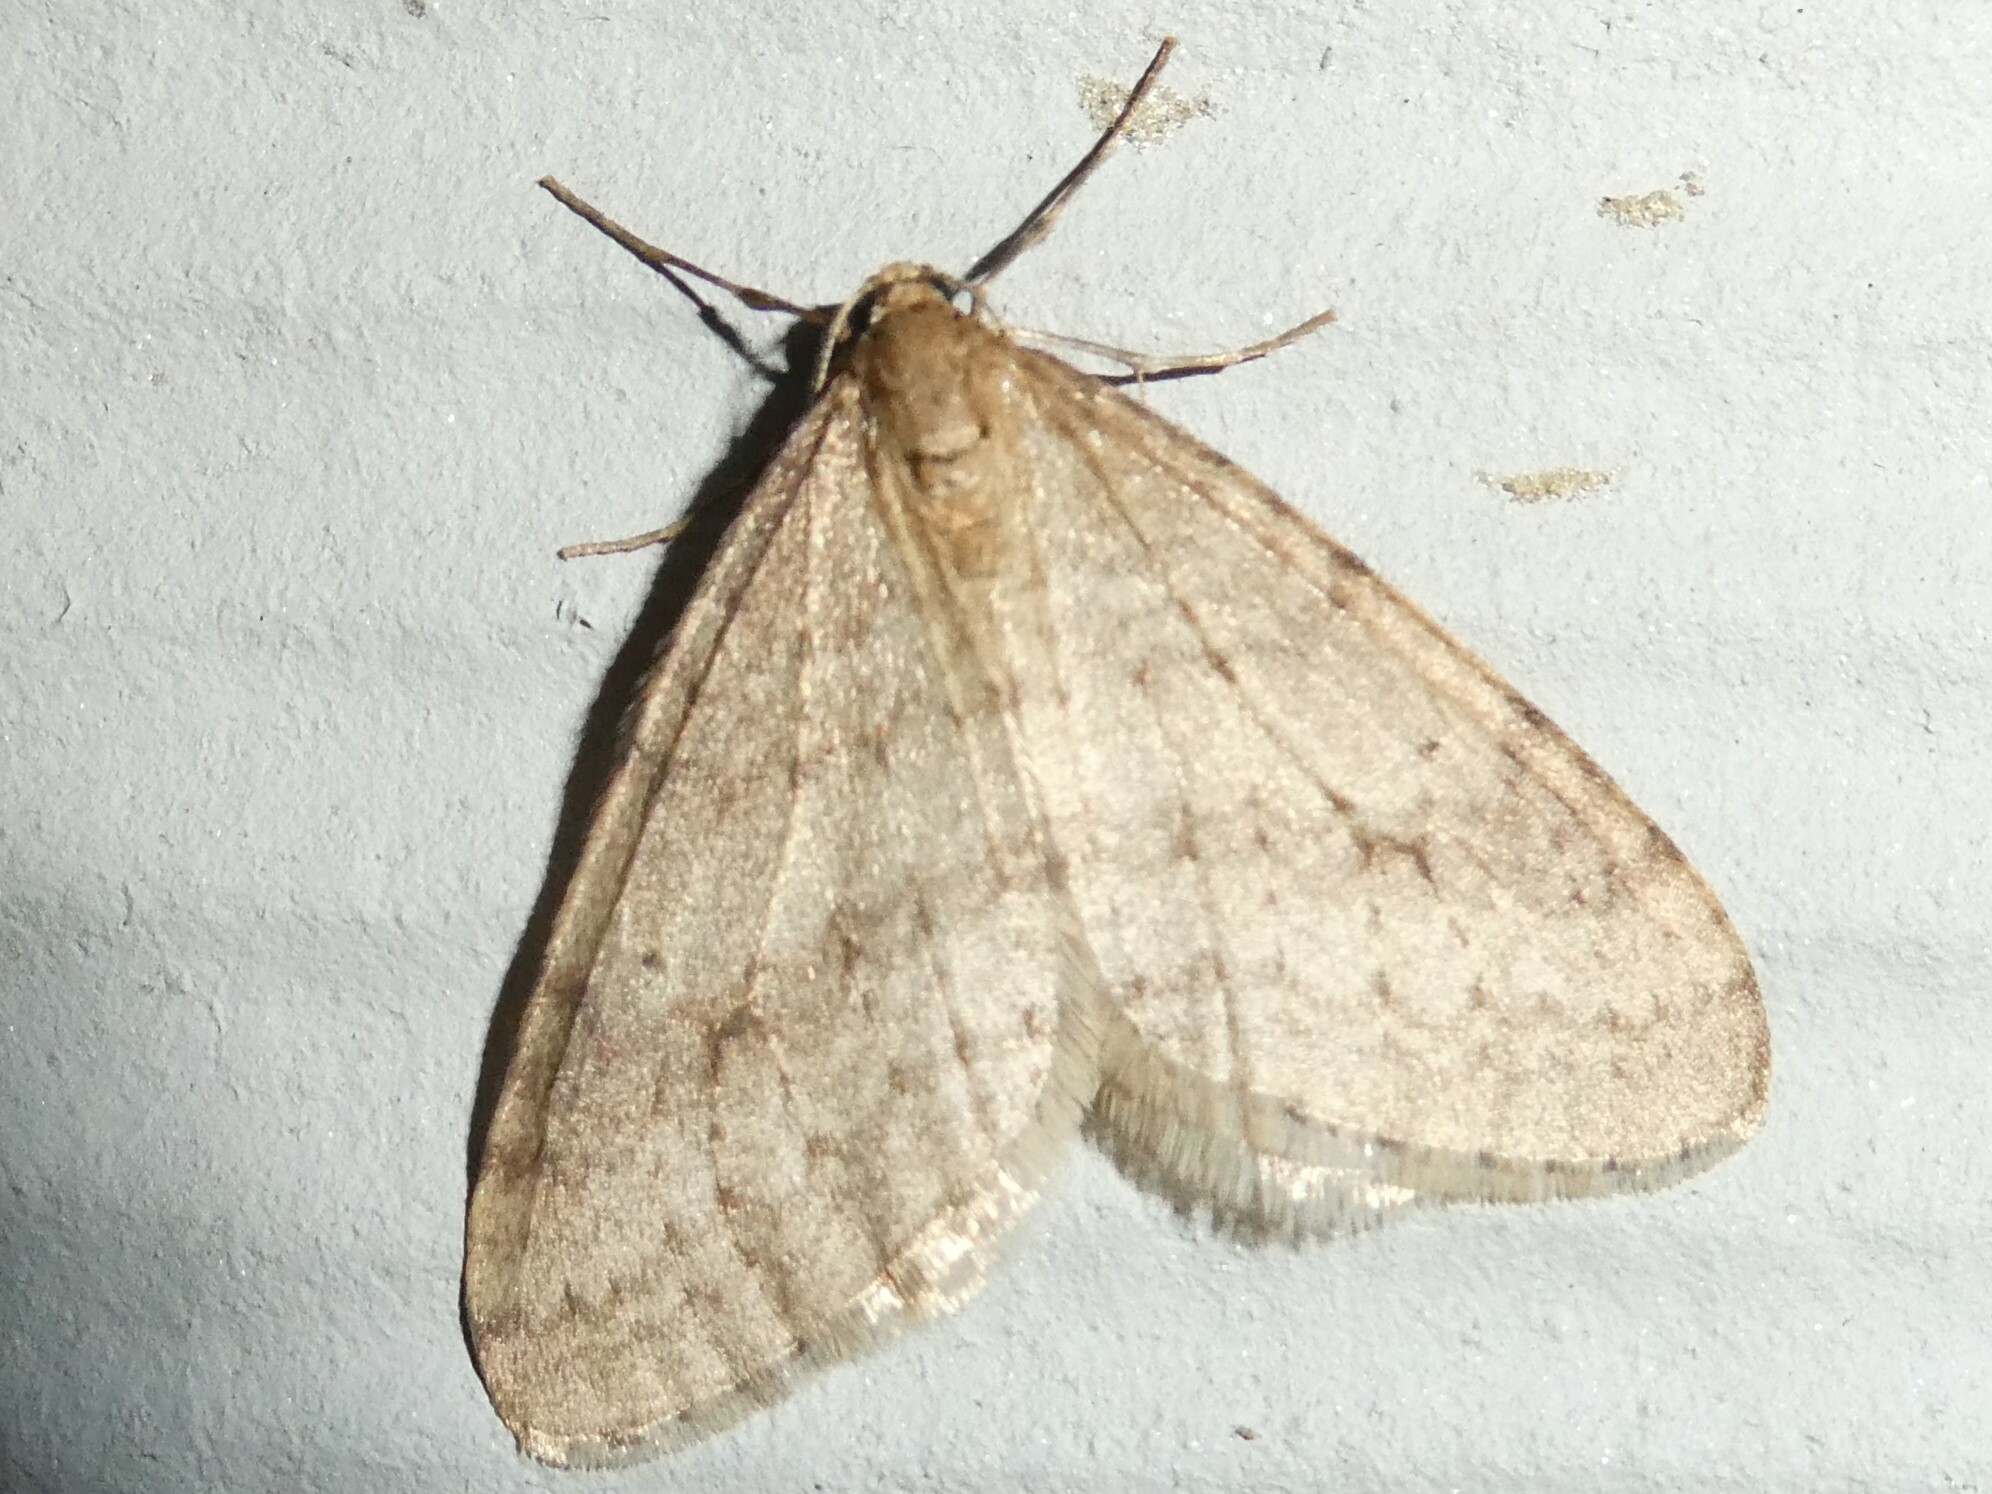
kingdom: Animalia
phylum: Arthropoda
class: Insecta
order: Lepidoptera
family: Geometridae
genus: Operophtera
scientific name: Operophtera bruceata
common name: Bruce spanworm
